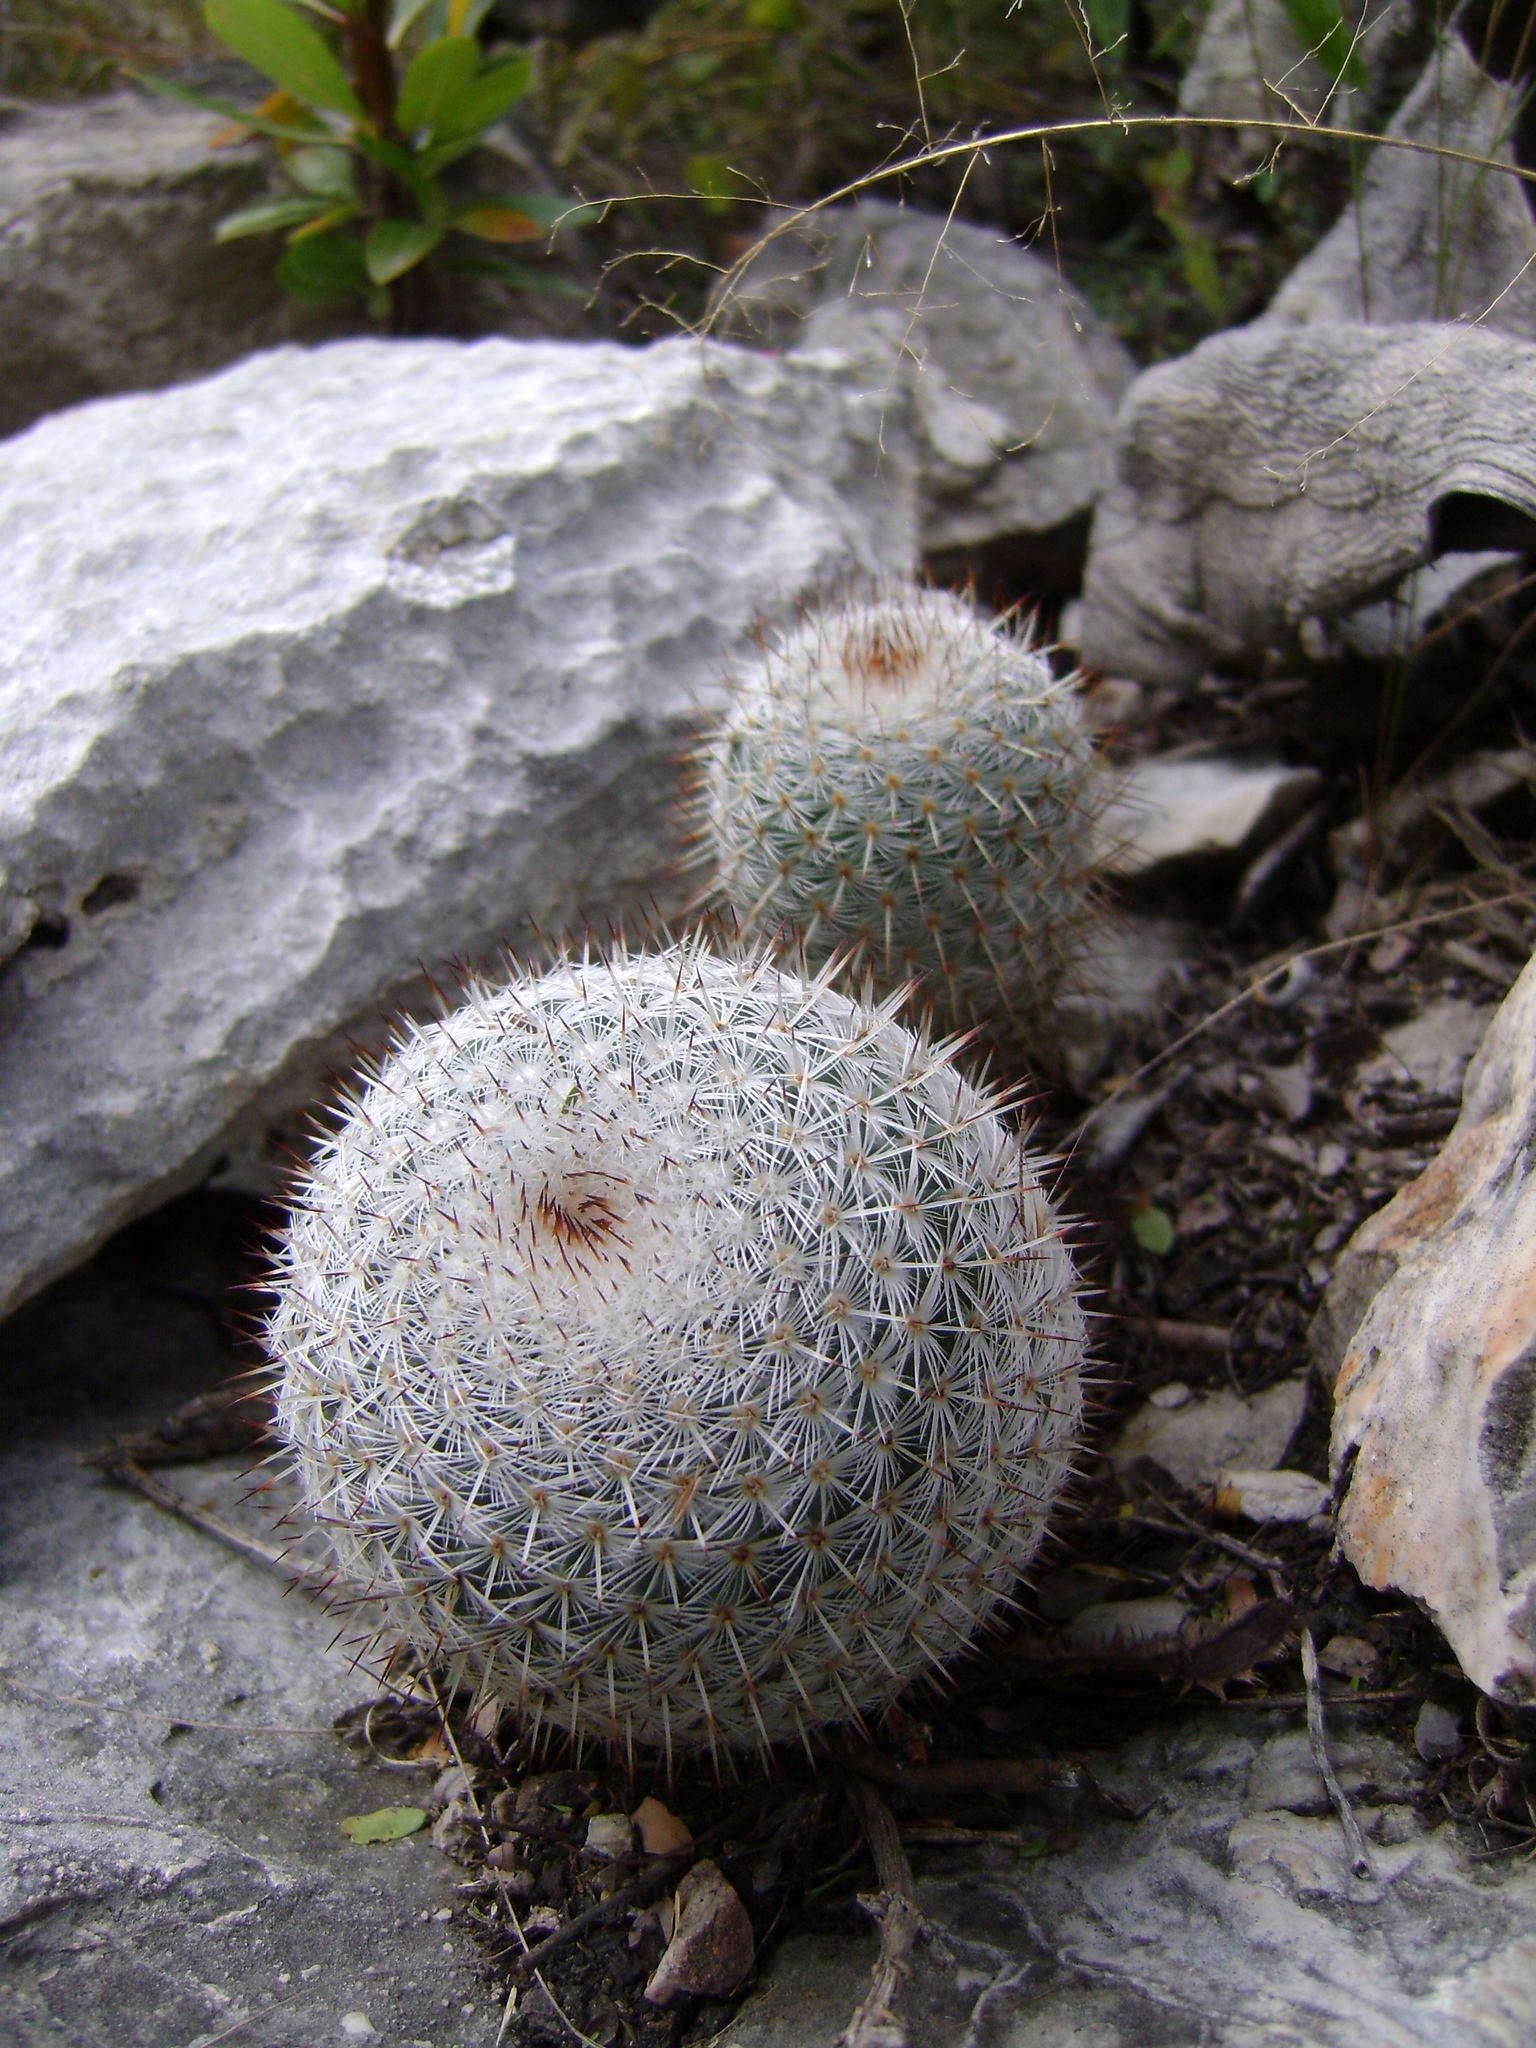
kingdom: Plantae
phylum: Tracheophyta
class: Magnoliopsida
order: Caryophyllales
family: Cactaceae
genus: Mammillaria
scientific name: Mammillaria haageana
